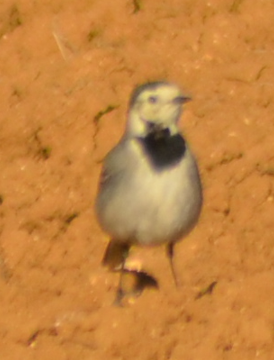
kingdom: Animalia
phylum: Chordata
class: Aves
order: Passeriformes
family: Motacillidae
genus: Motacilla
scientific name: Motacilla alba
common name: White wagtail
